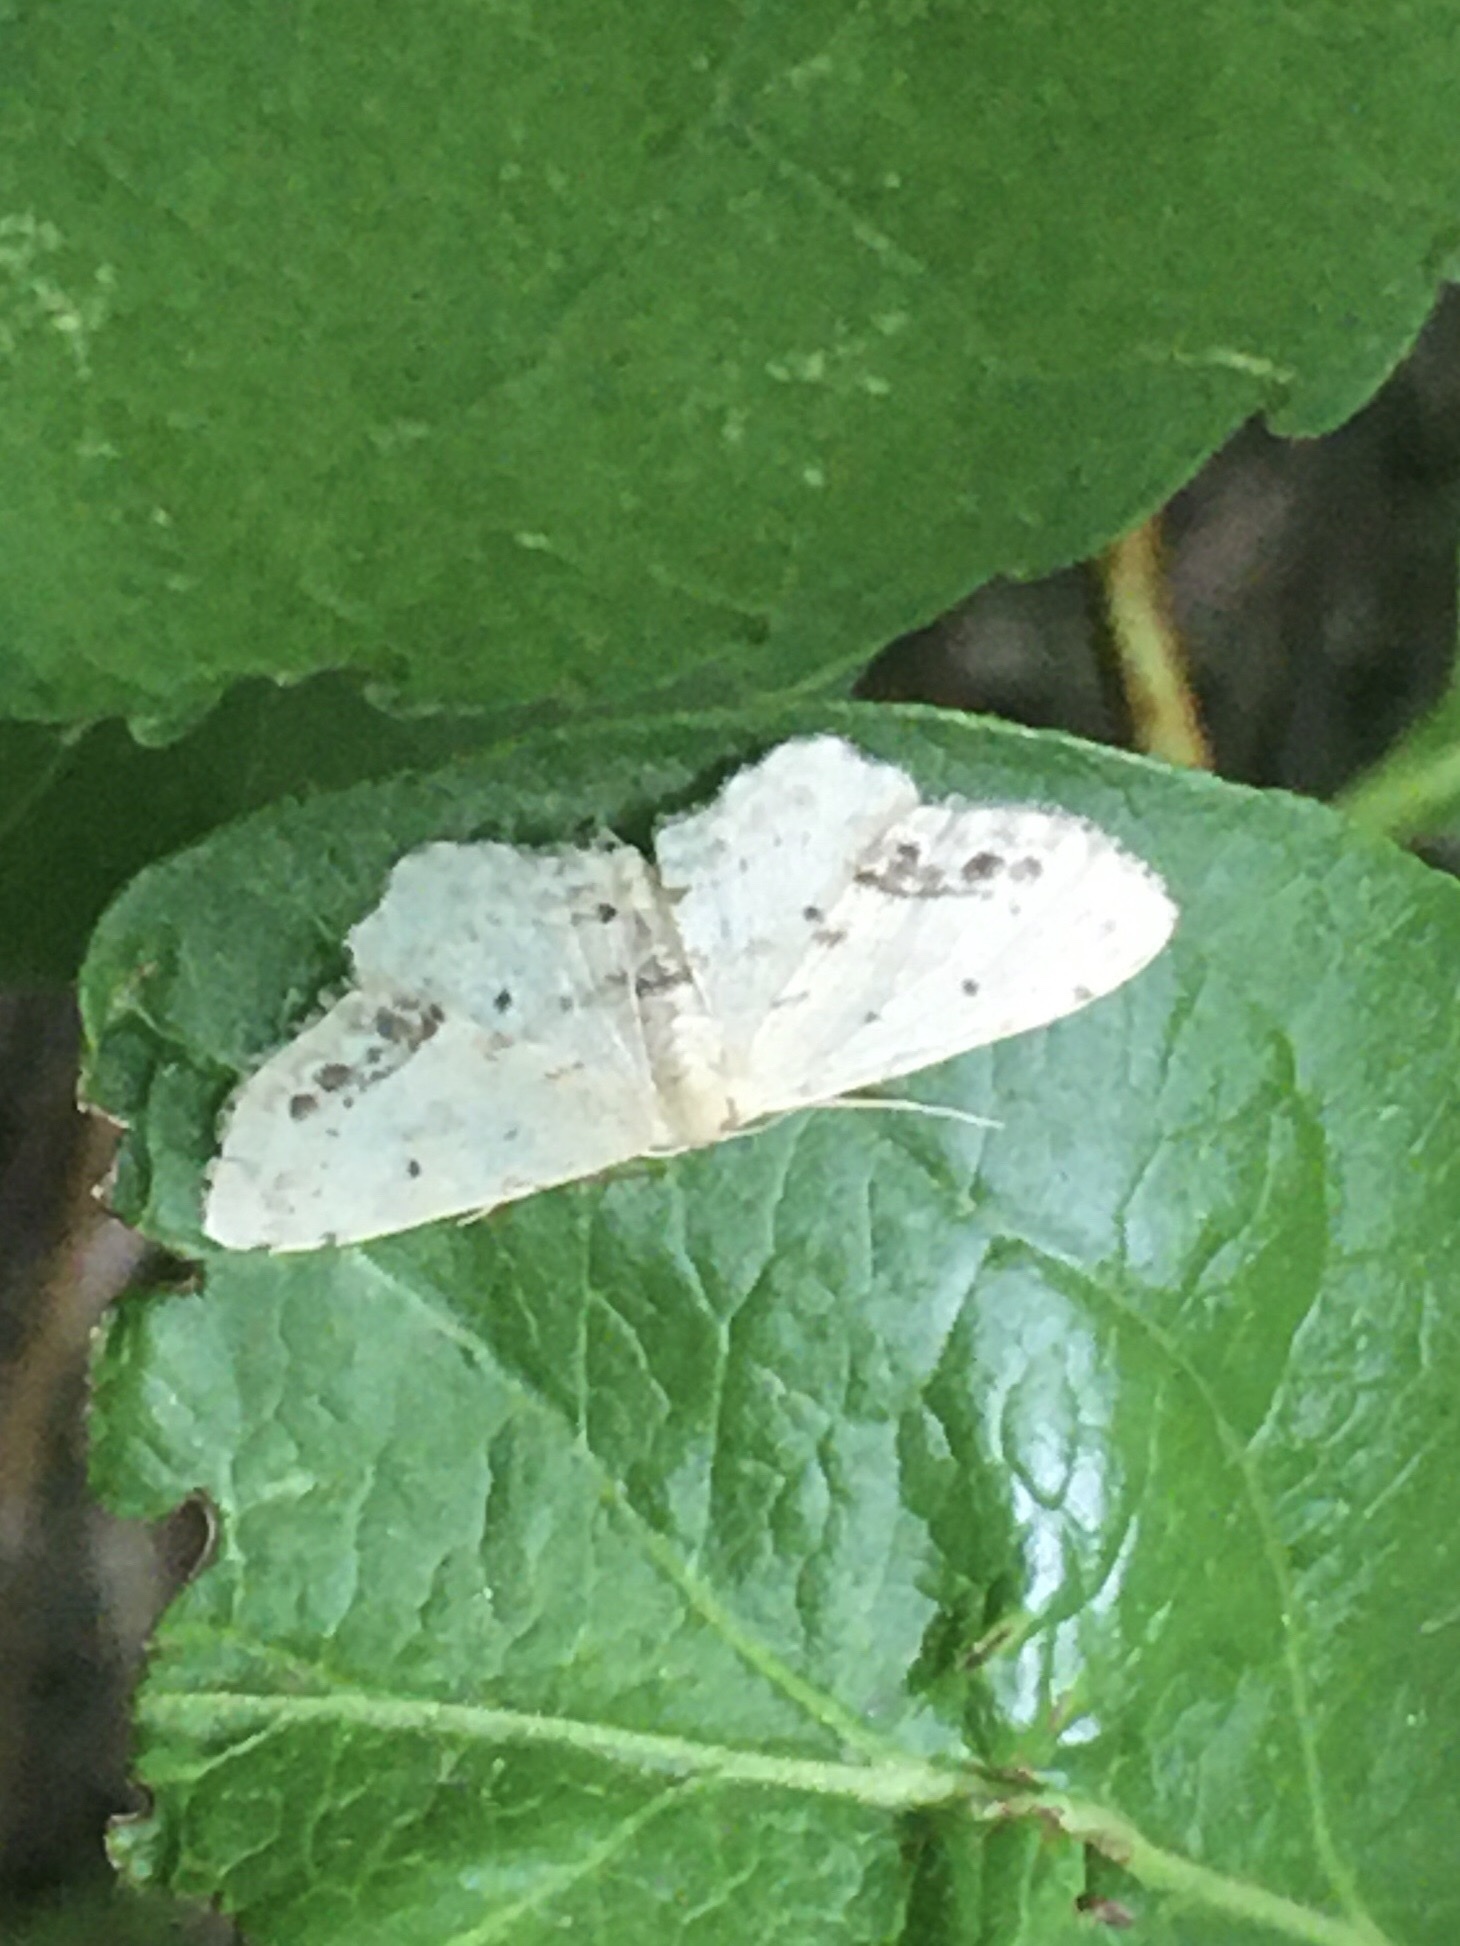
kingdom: Animalia
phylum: Arthropoda
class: Insecta
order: Lepidoptera
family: Geometridae
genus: Idaea
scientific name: Idaea dimidiata
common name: Single-dotted wave
